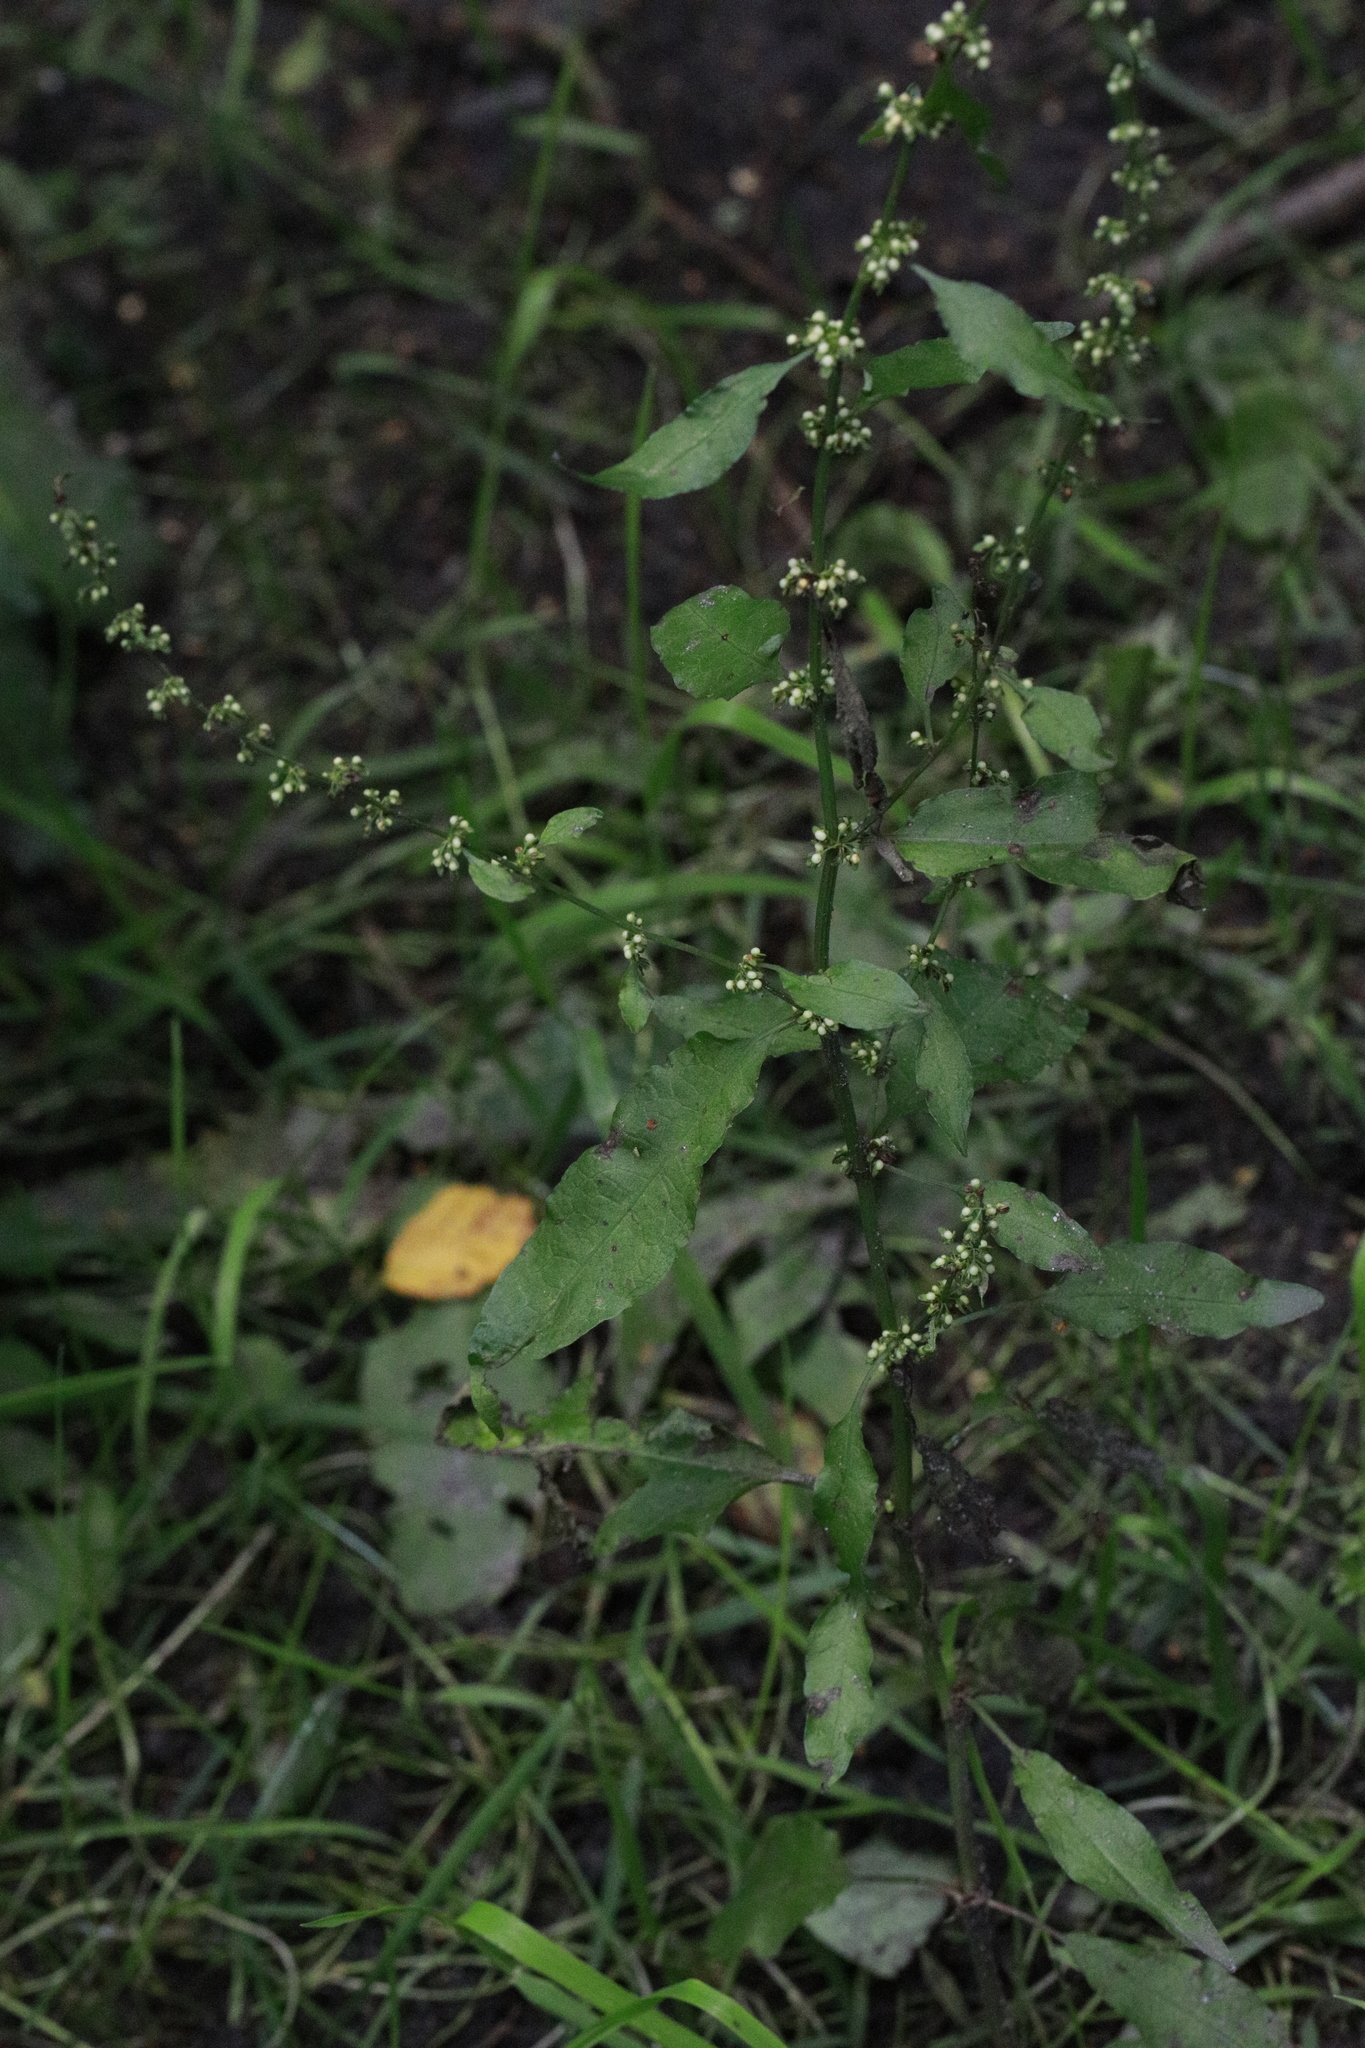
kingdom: Plantae
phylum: Tracheophyta
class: Magnoliopsida
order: Caryophyllales
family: Polygonaceae
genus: Rumex
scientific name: Rumex conglomeratus
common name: Clustered dock
